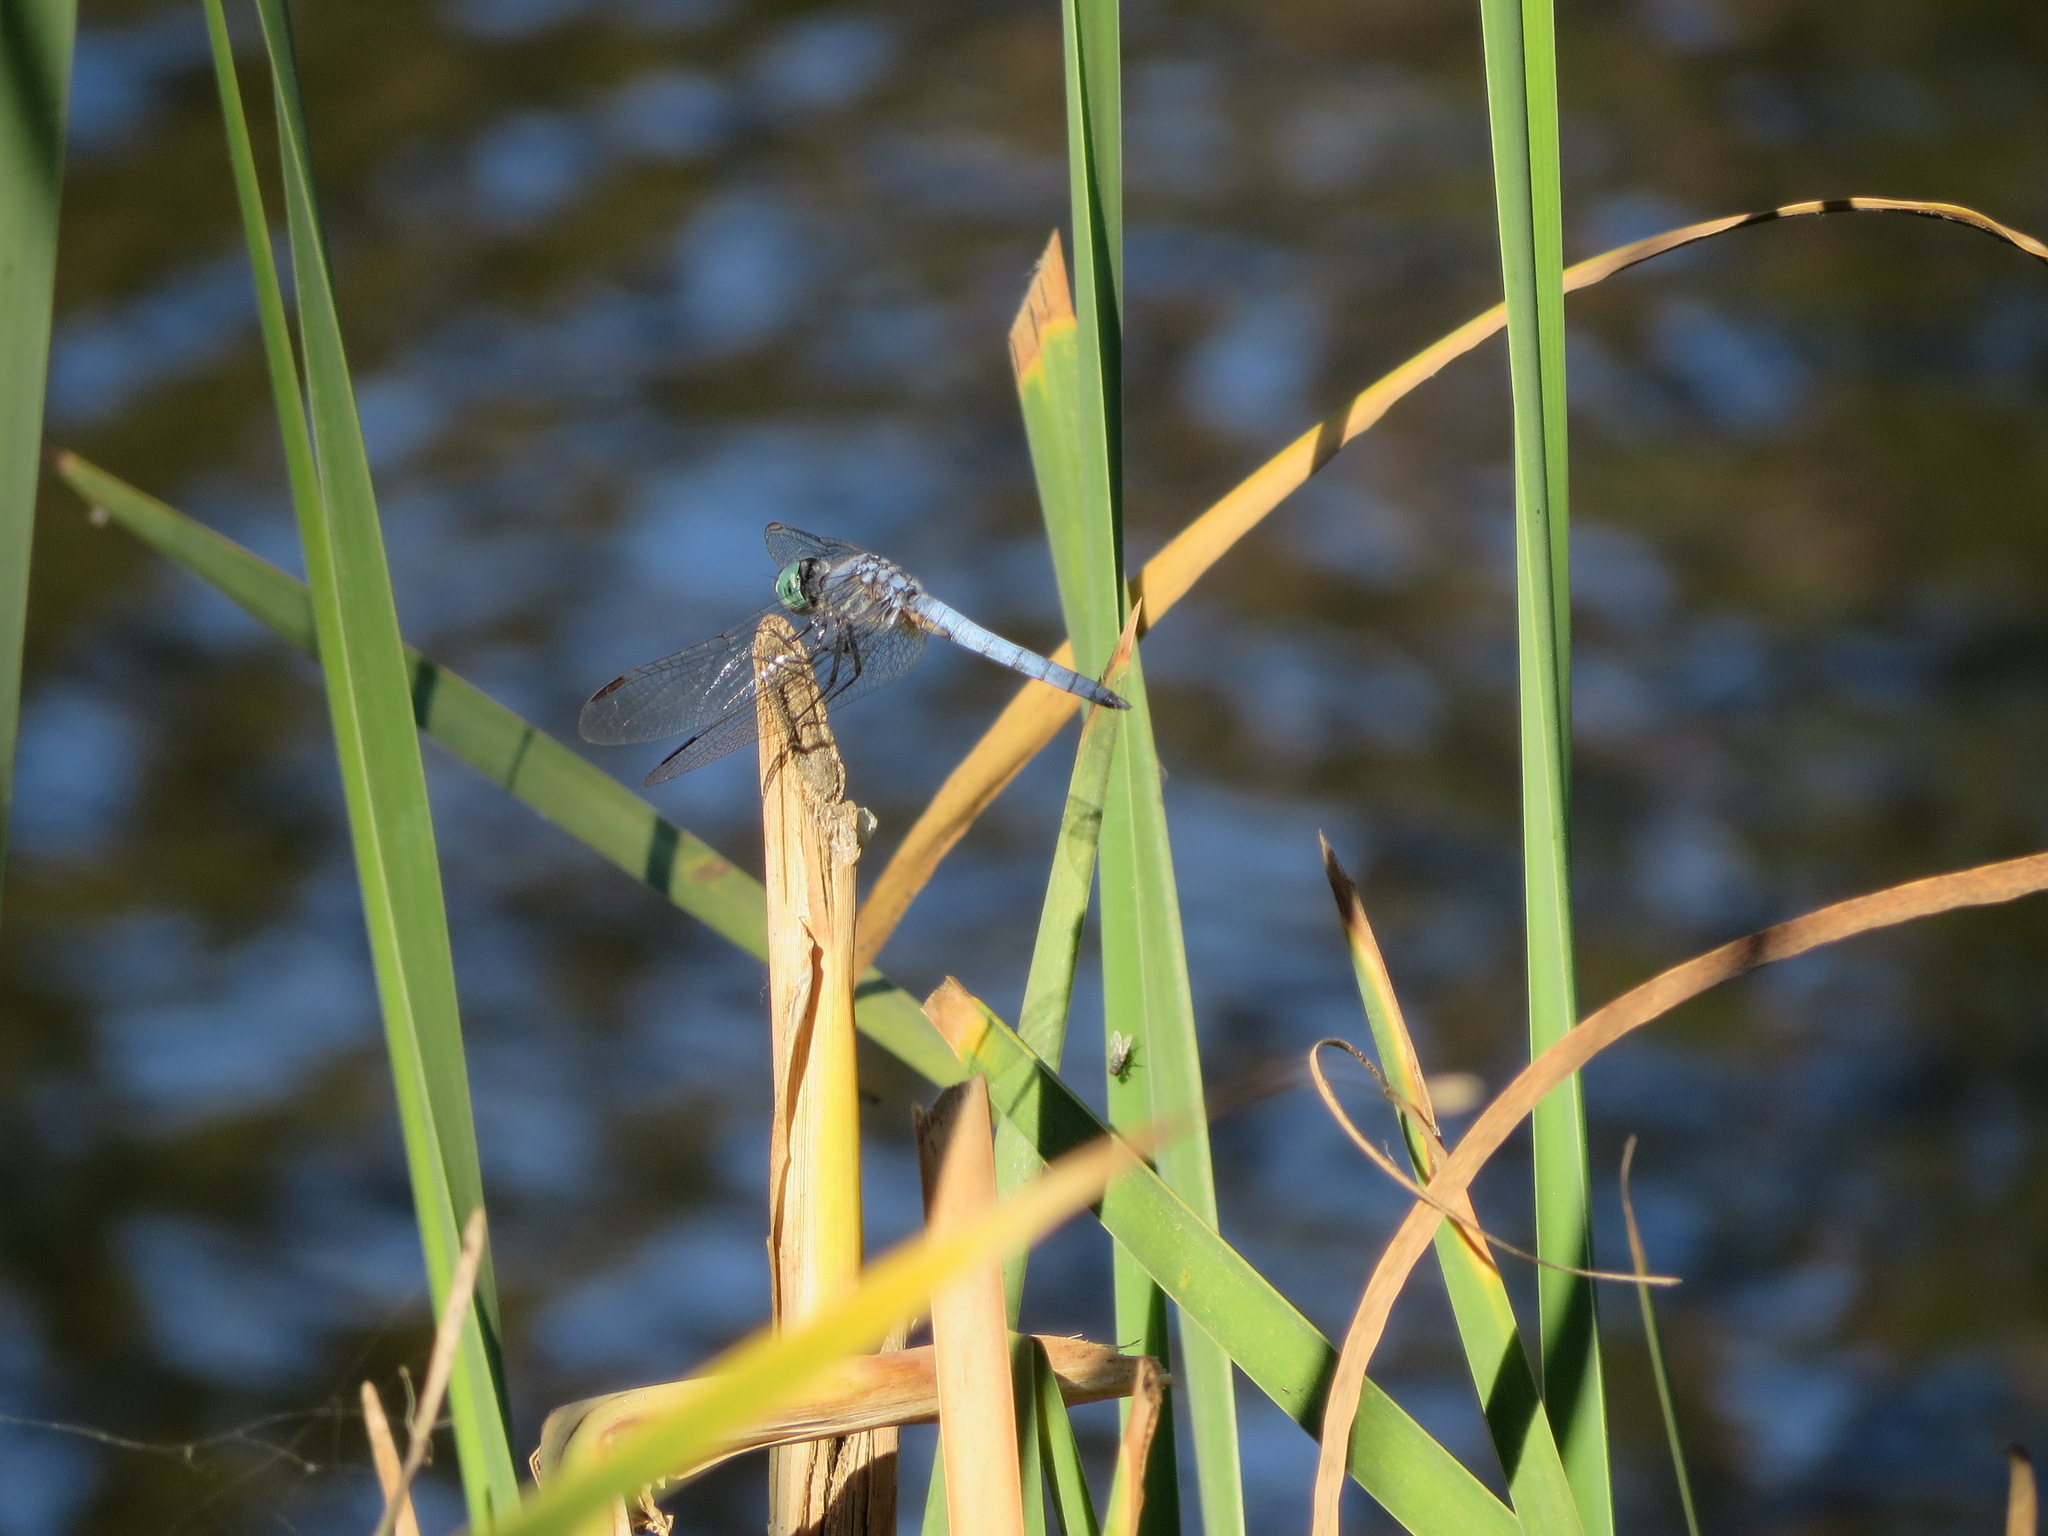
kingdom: Animalia
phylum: Arthropoda
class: Insecta
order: Odonata
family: Libellulidae
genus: Pachydiplax
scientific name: Pachydiplax longipennis
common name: Blue dasher
